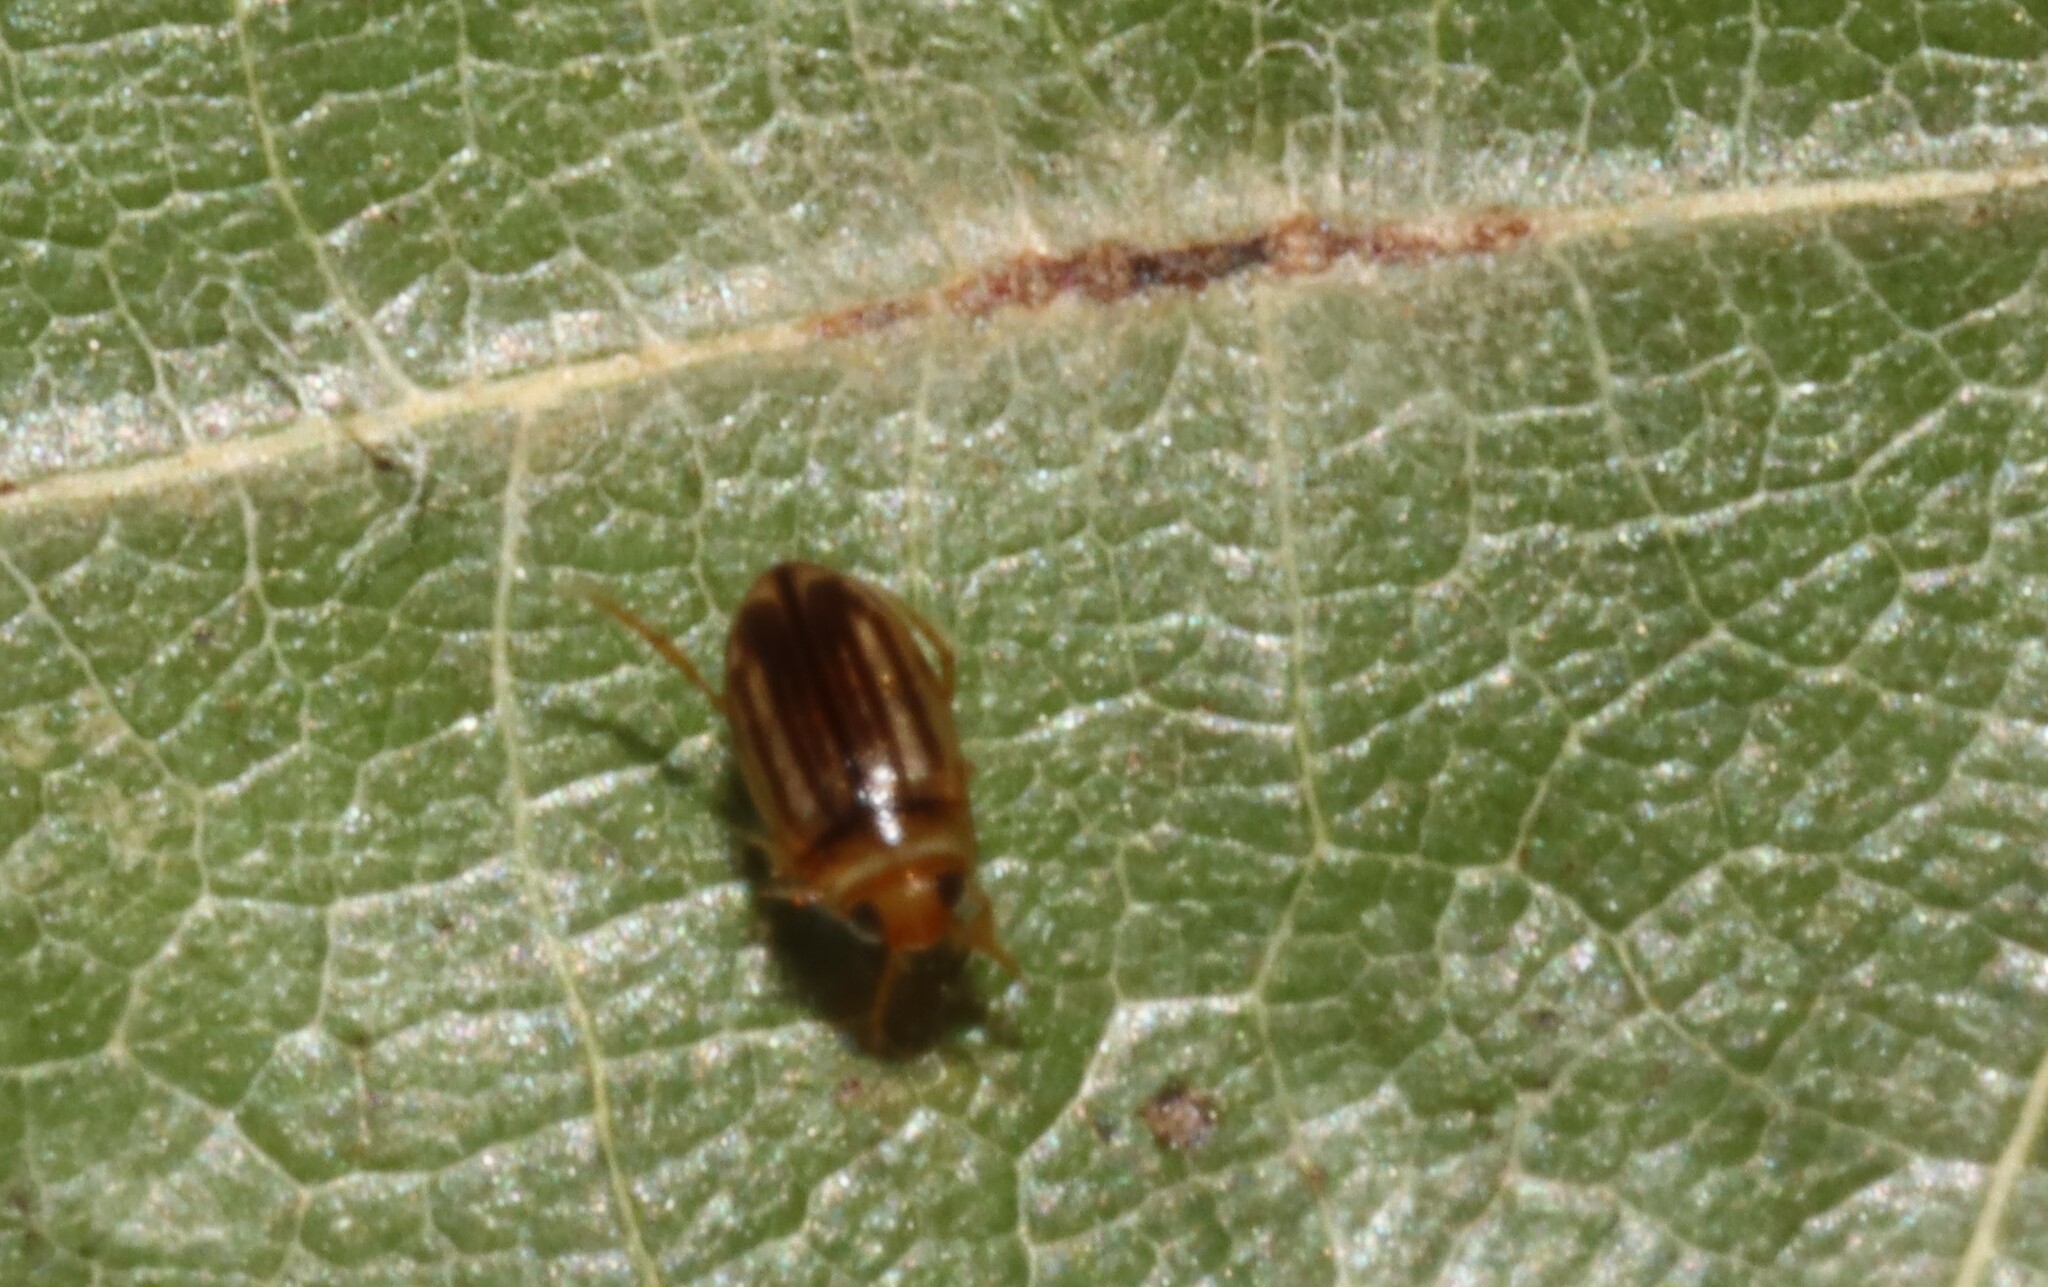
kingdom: Animalia
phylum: Arthropoda
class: Insecta
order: Coleoptera
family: Dytiscidae
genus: Neobidessus
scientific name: Neobidessus pullus
